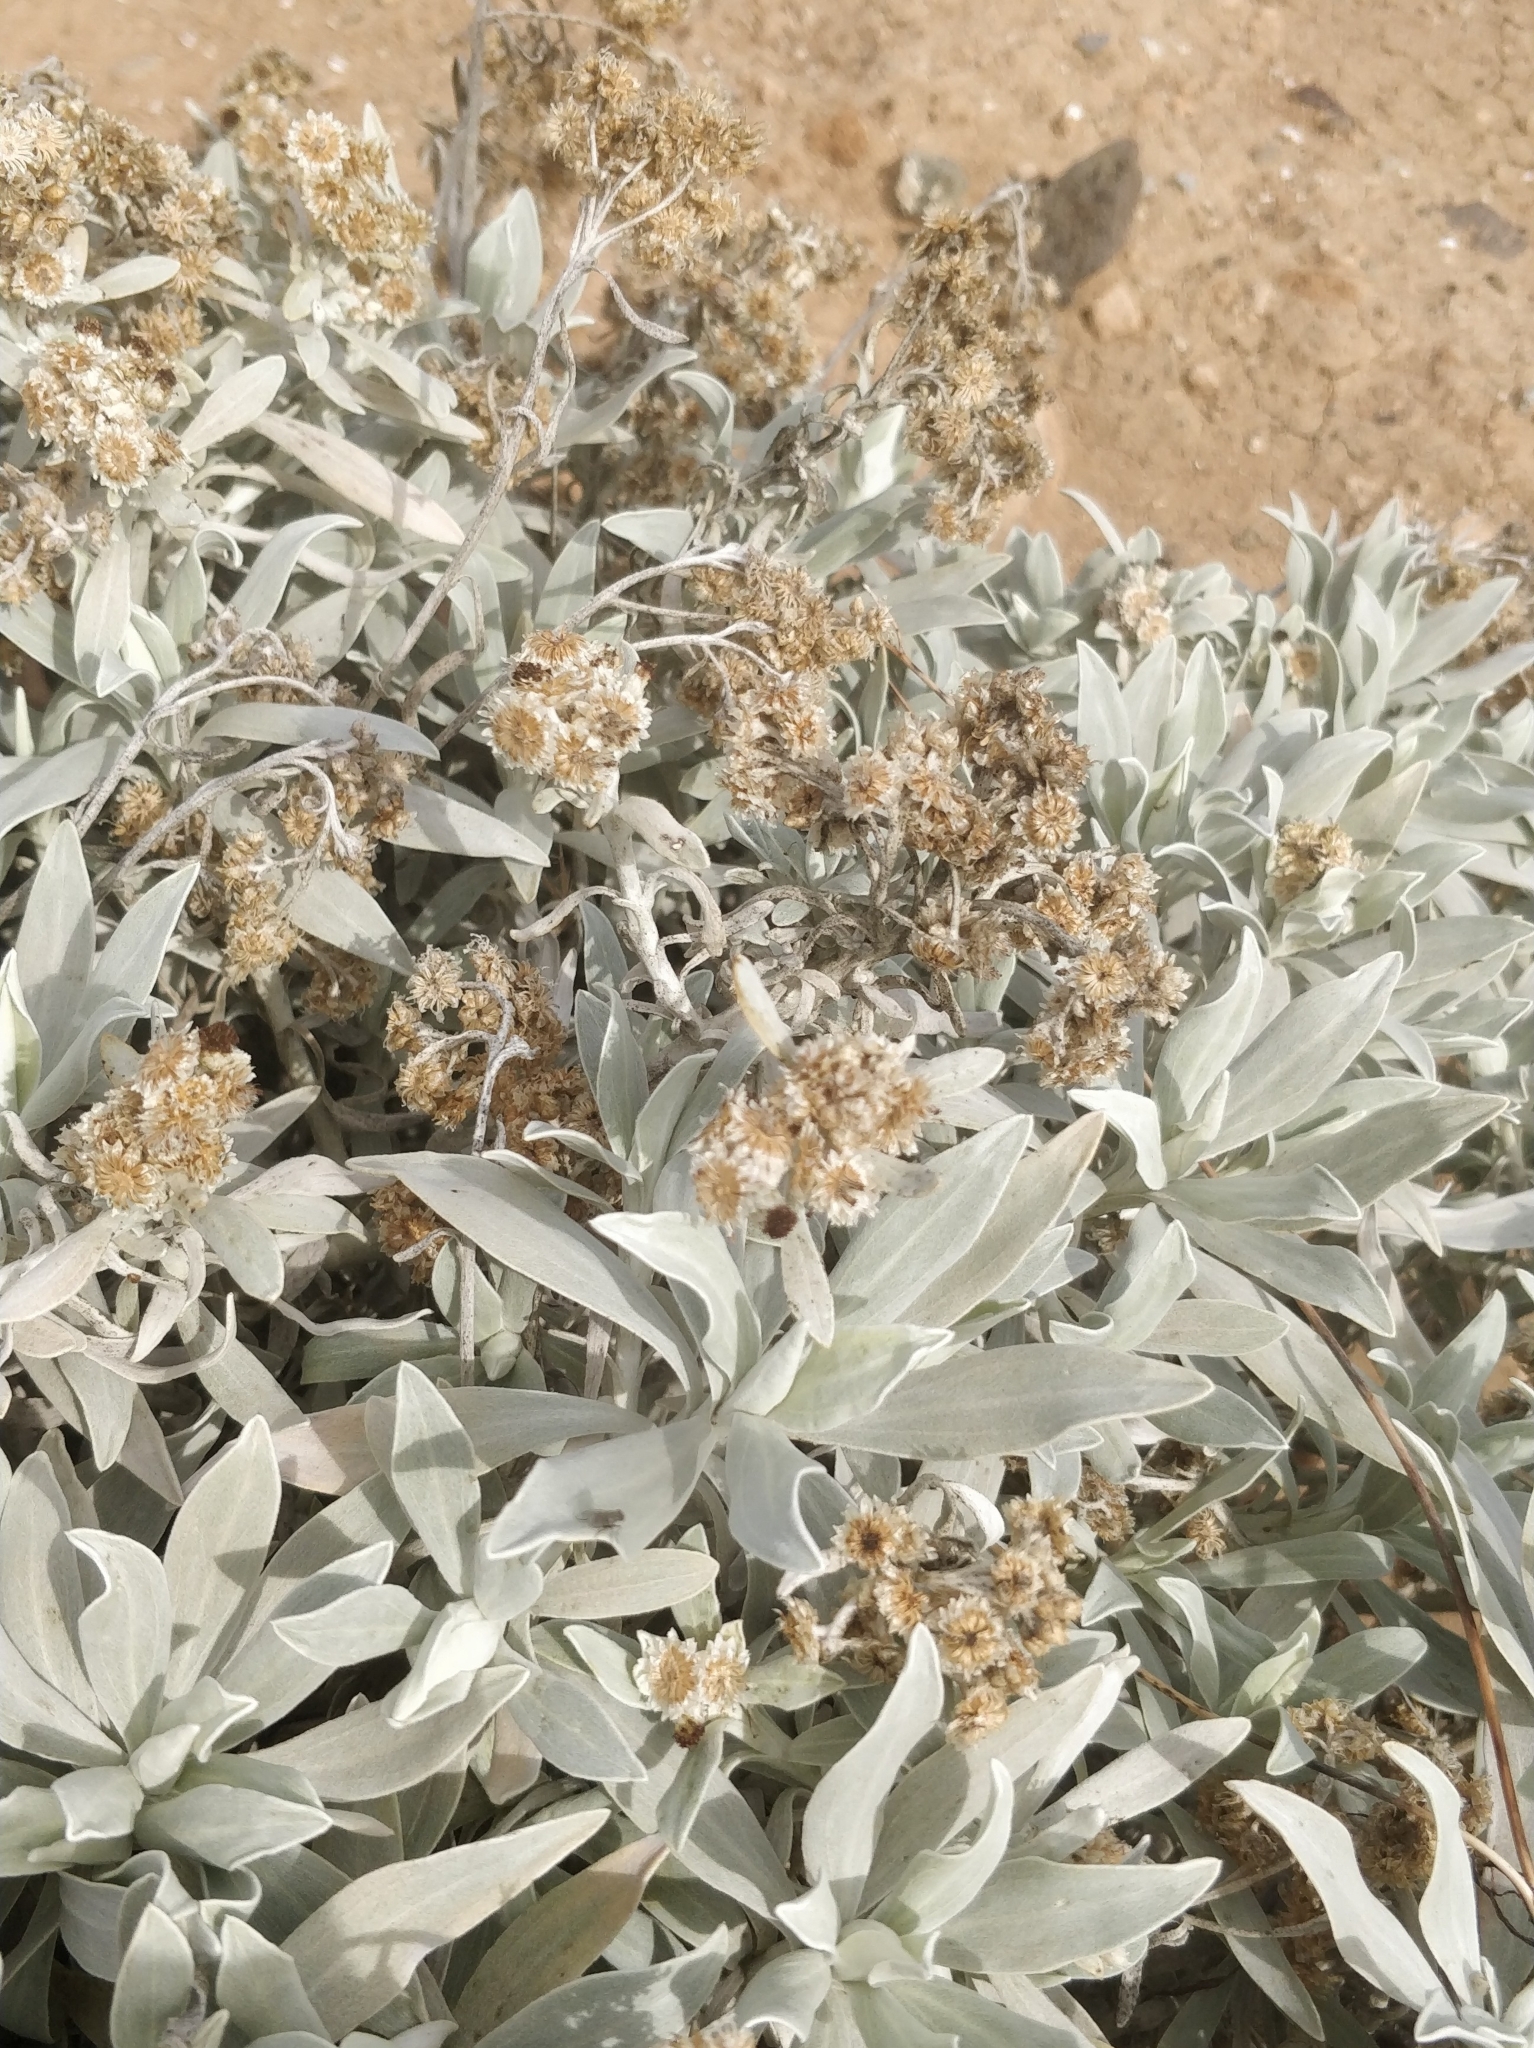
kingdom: Plantae
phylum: Tracheophyta
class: Magnoliopsida
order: Asterales
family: Asteraceae
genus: Helichrysum
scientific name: Helichrysum melaleucum
